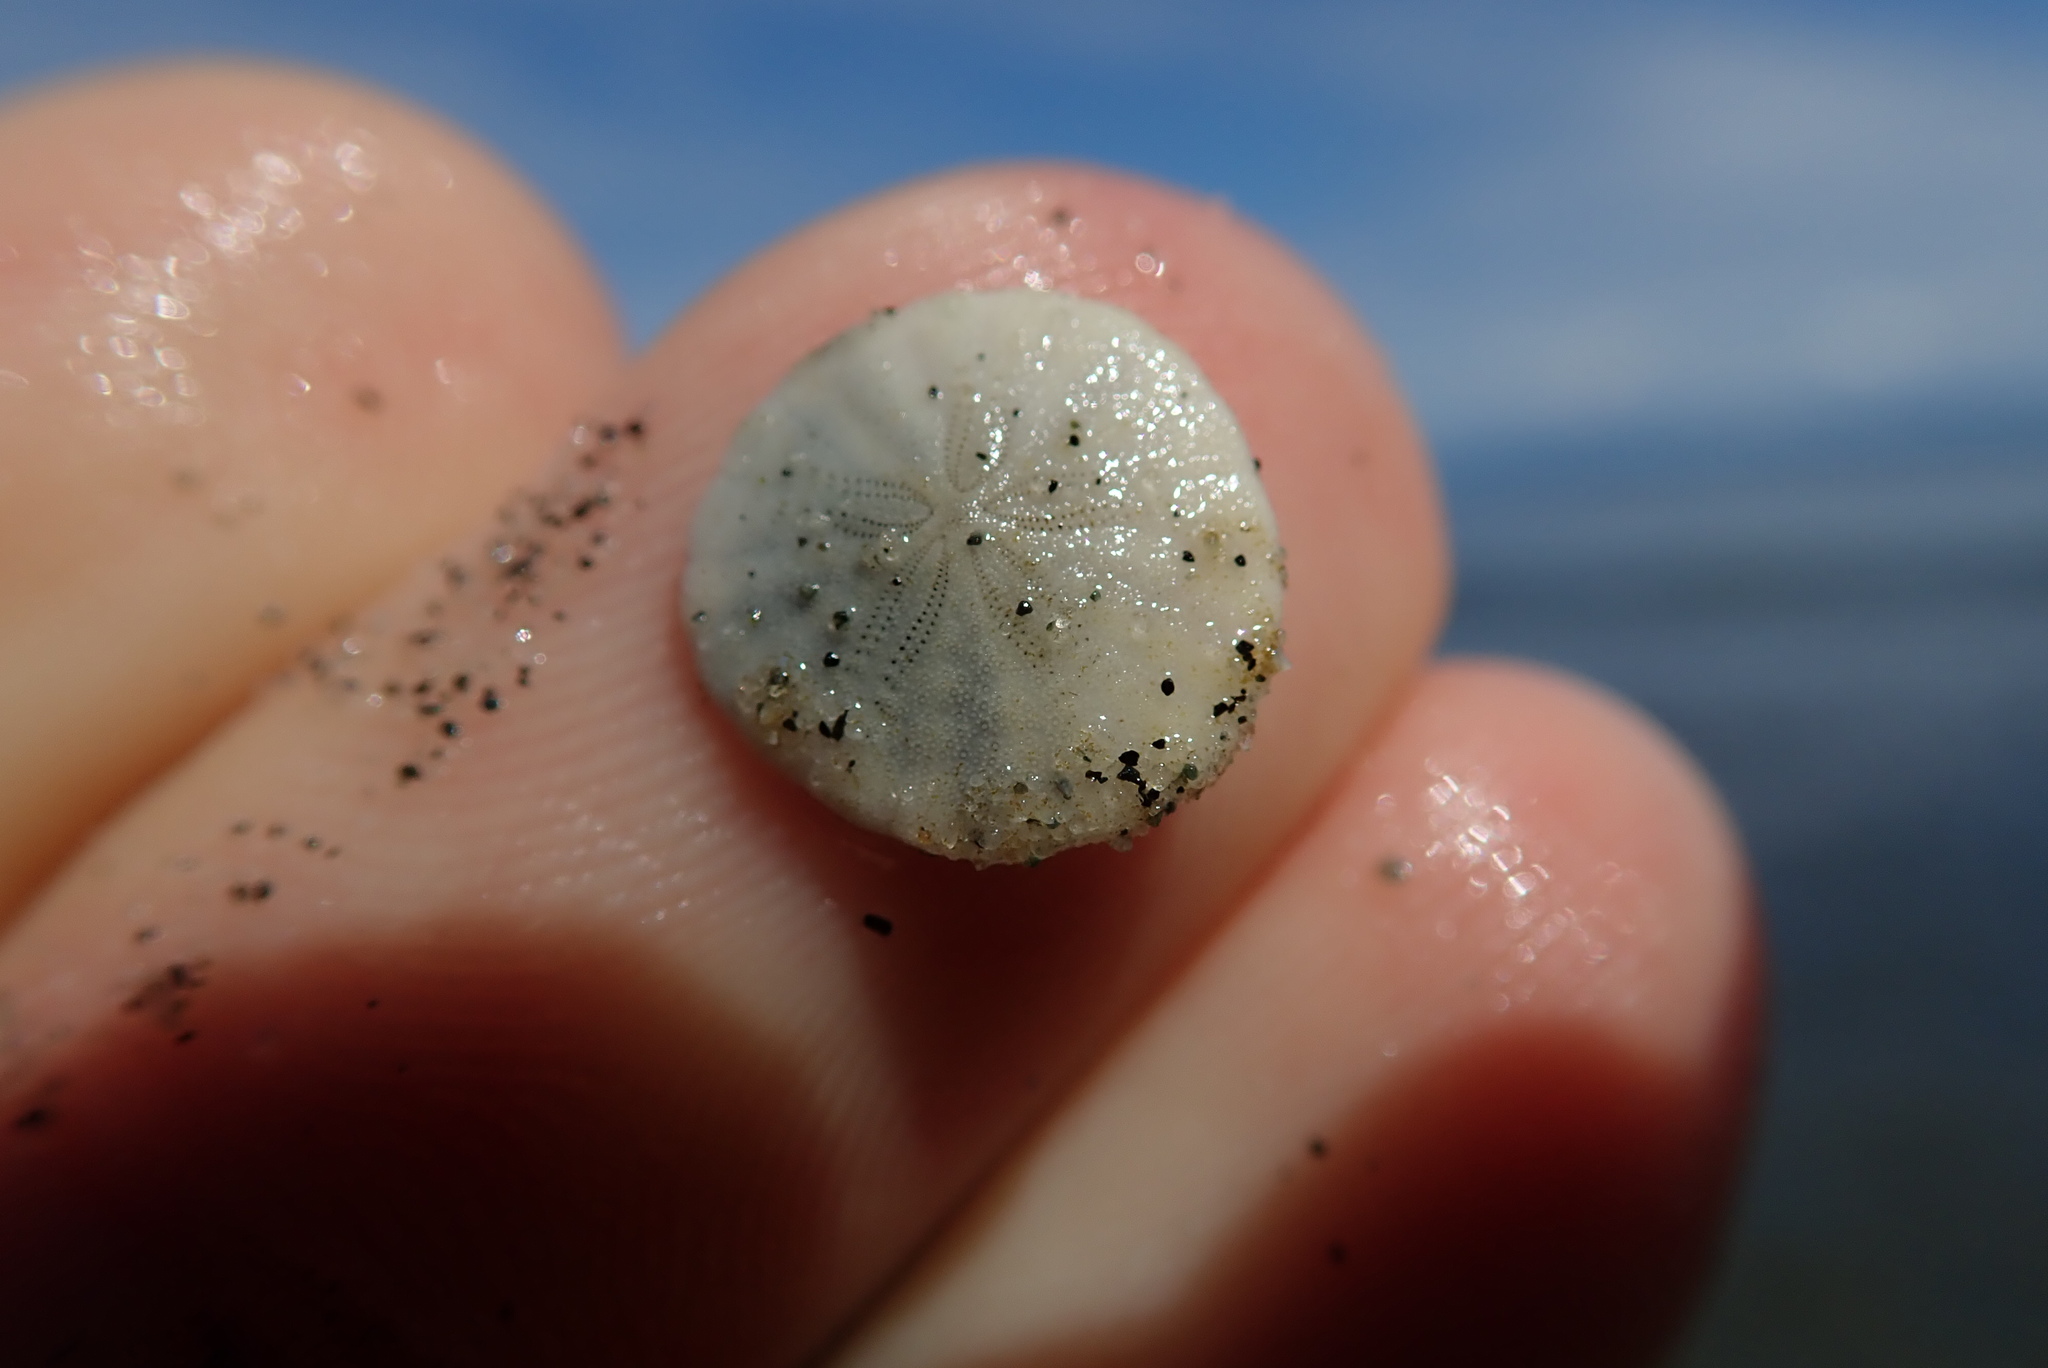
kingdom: Animalia
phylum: Echinodermata
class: Echinoidea
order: Echinolampadacea
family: Dendrasteridae
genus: Dendraster
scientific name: Dendraster excentricus
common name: Eccentric sand dollar sea urchin
